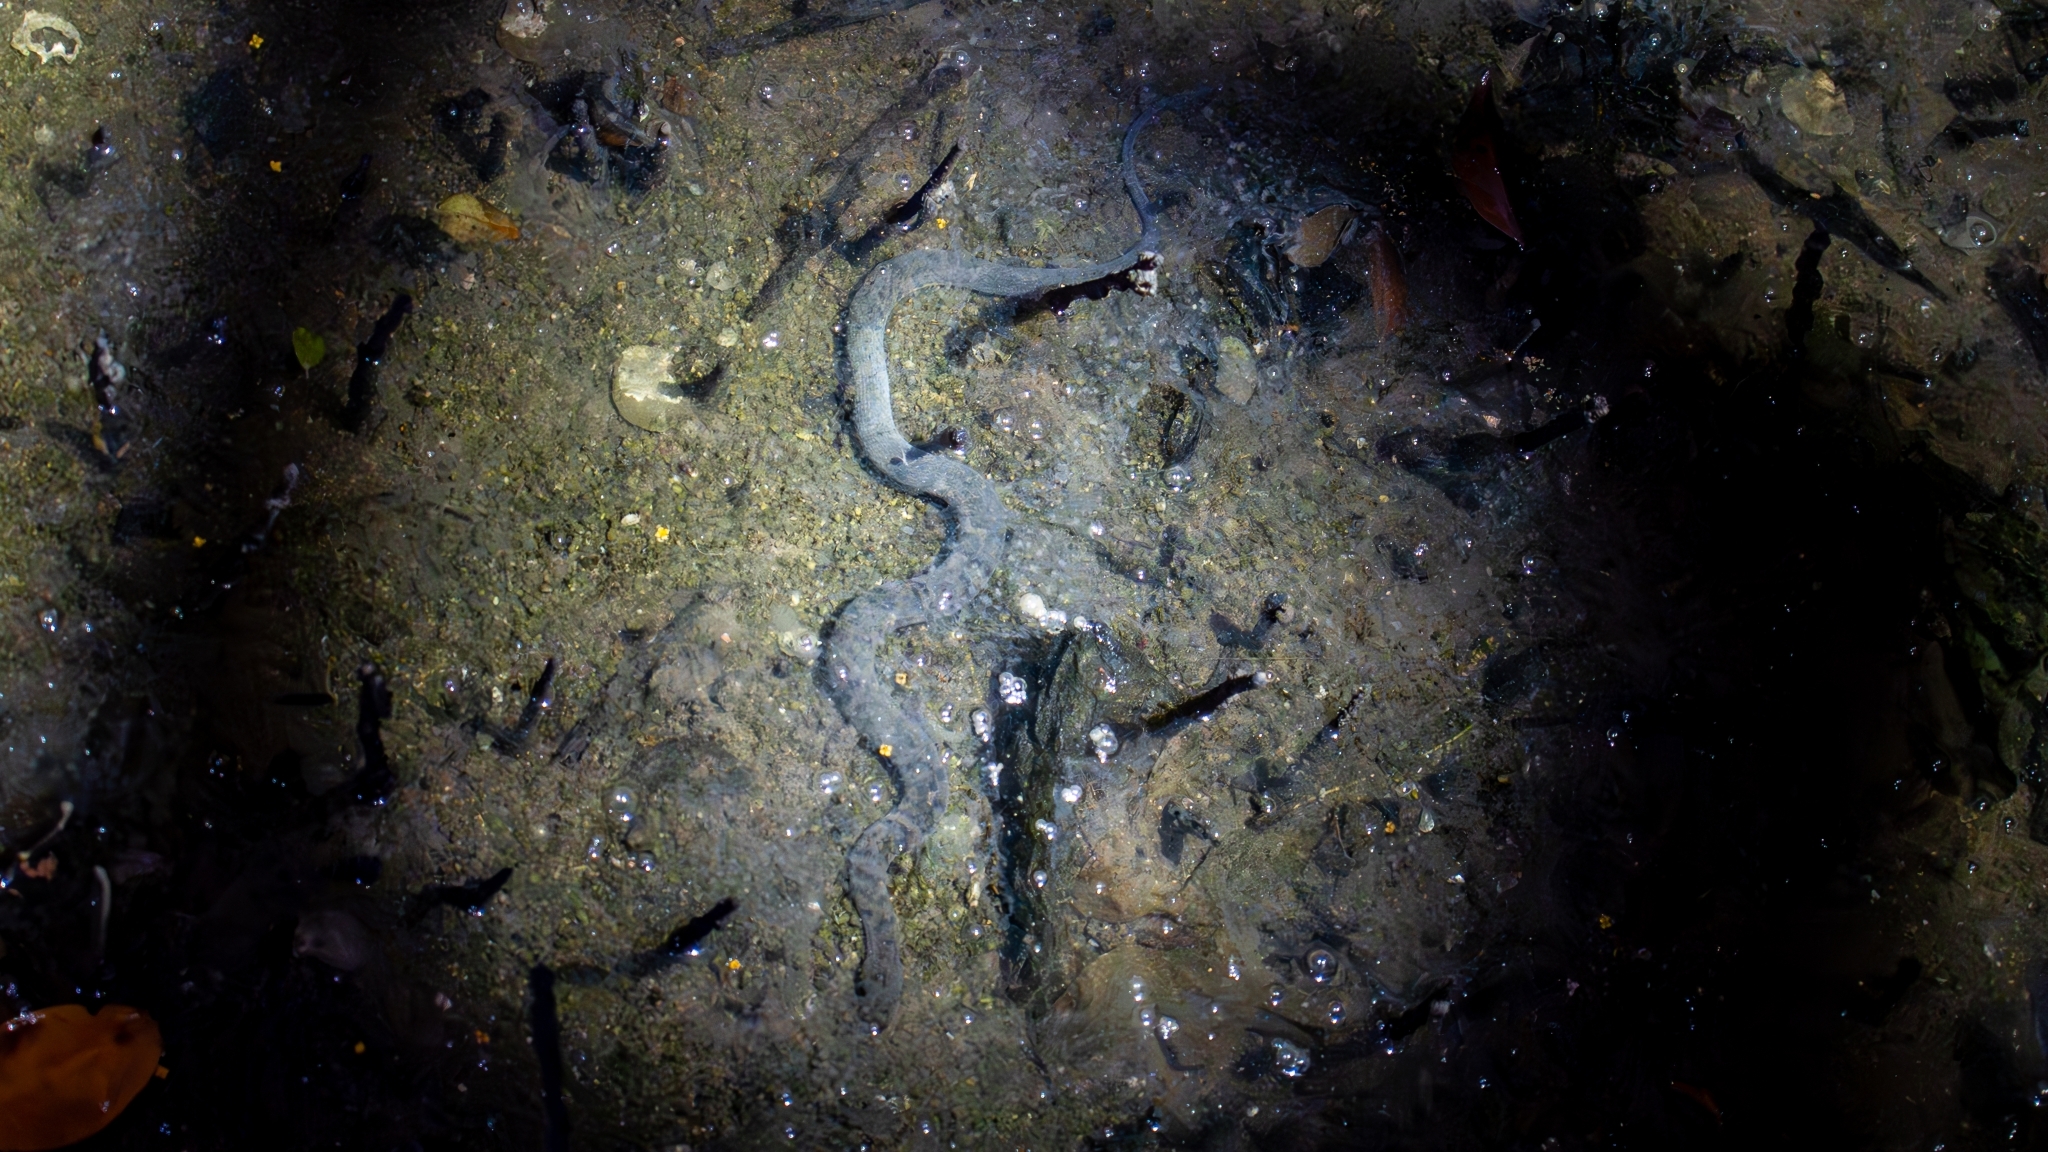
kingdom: Animalia
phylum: Chordata
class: Squamata
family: Homalopsidae
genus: Cerberus
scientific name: Cerberus schneiderii
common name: Southeast asian bockadam
